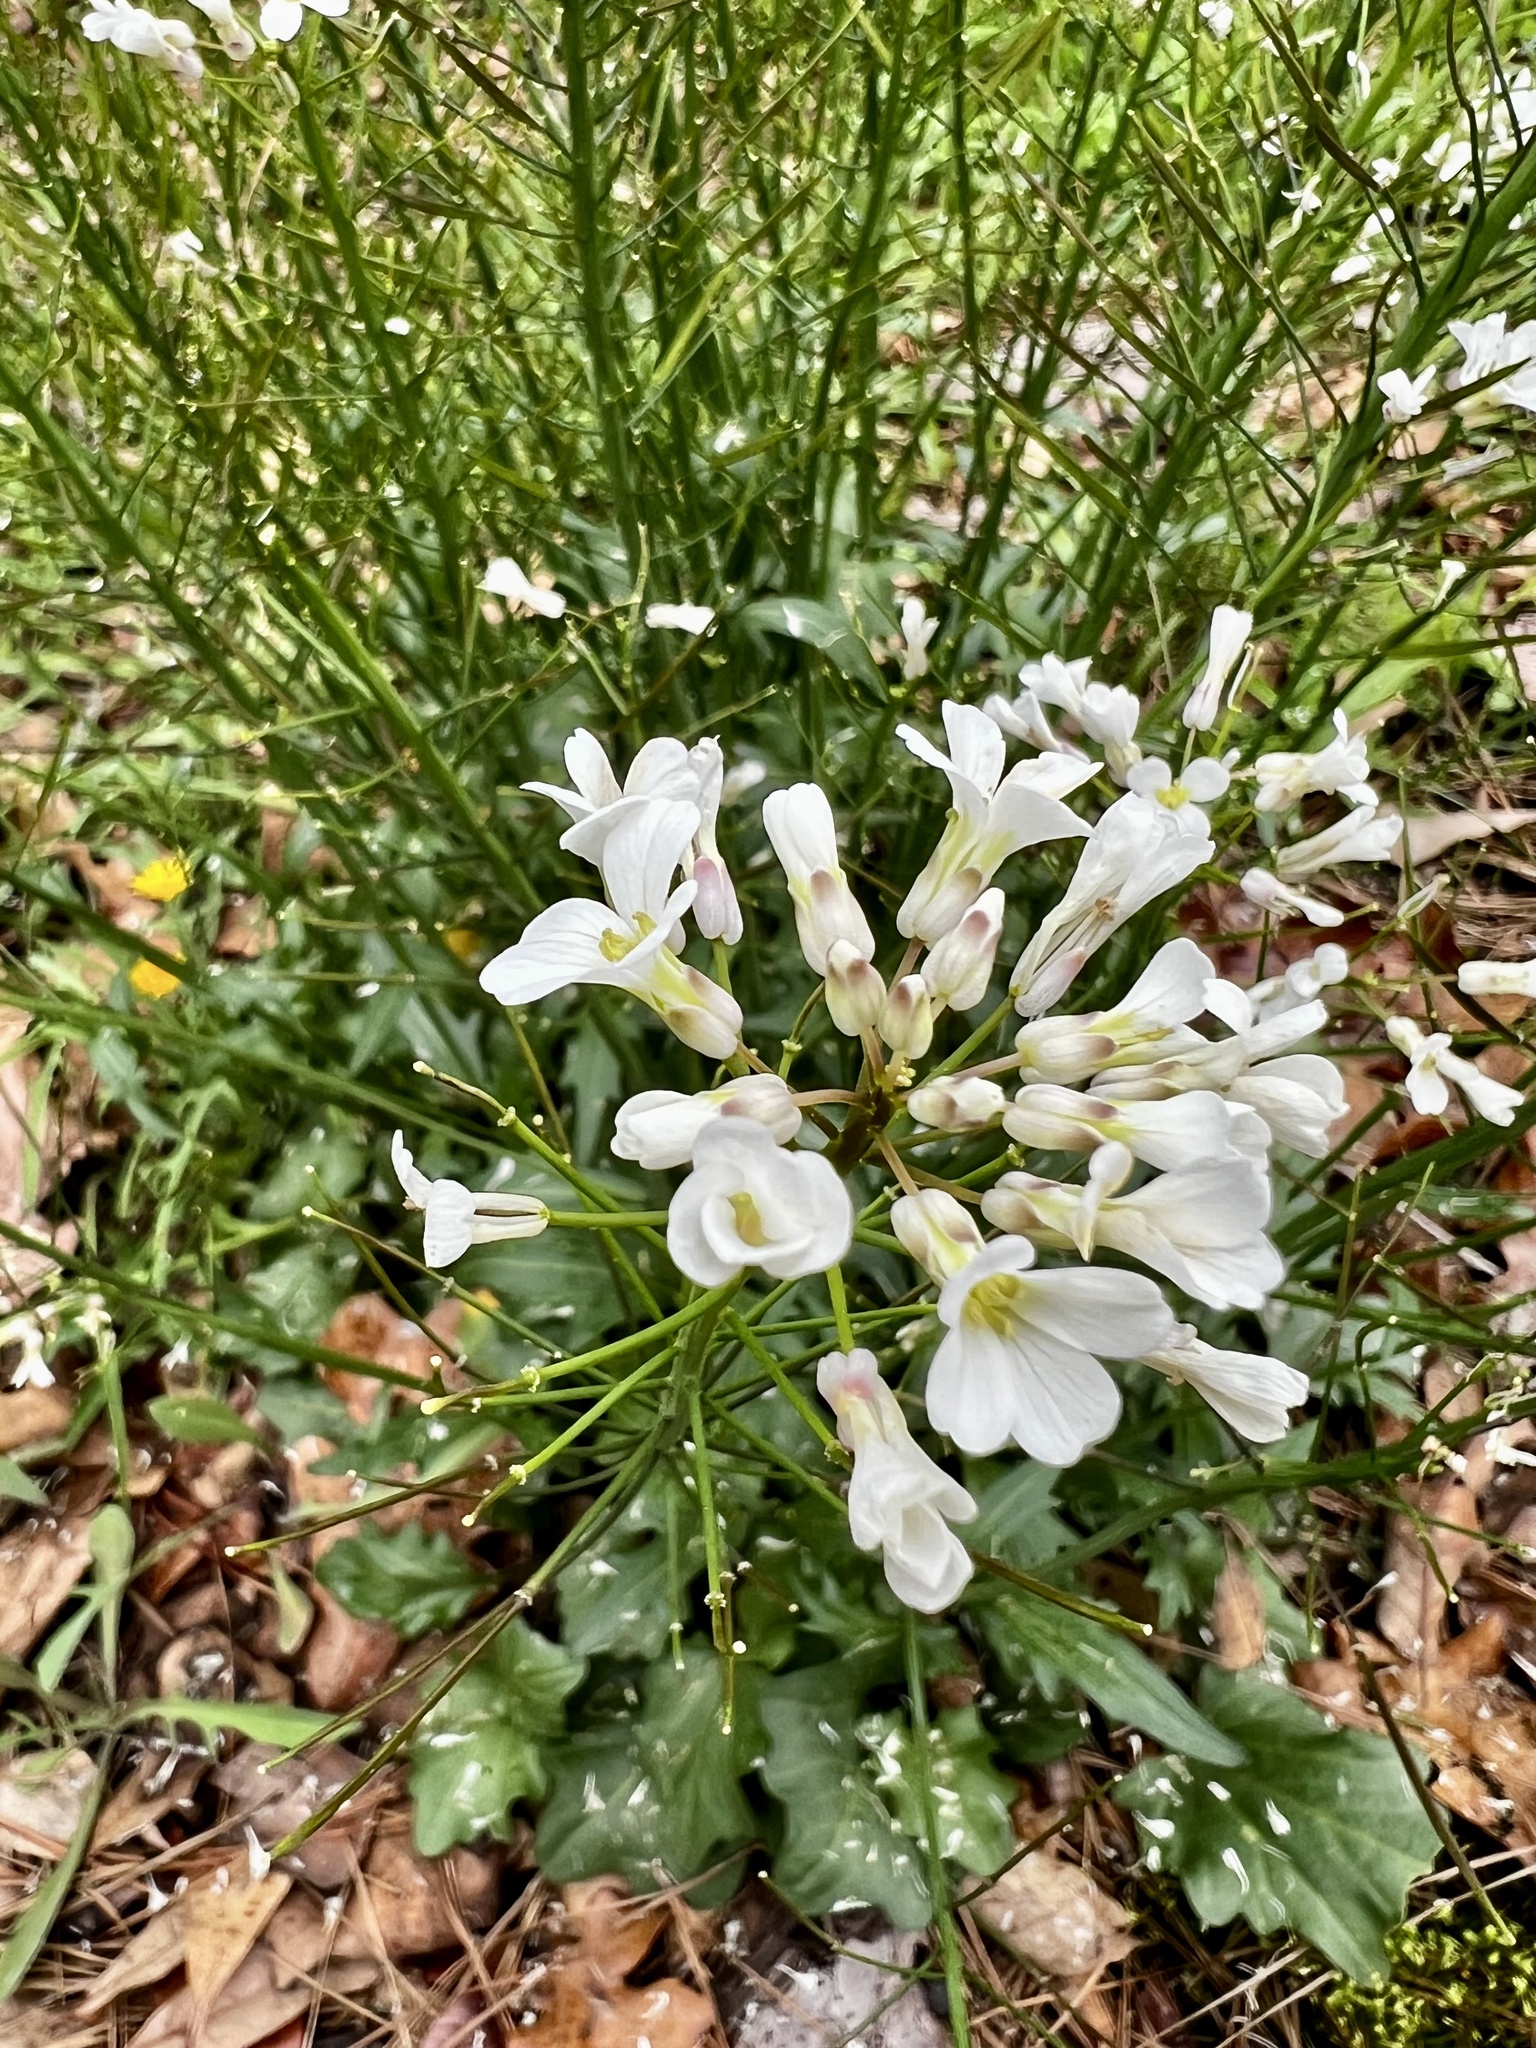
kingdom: Plantae
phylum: Tracheophyta
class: Magnoliopsida
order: Brassicales
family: Brassicaceae
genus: Cardamine
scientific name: Cardamine bulbosa
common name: Spring cress
